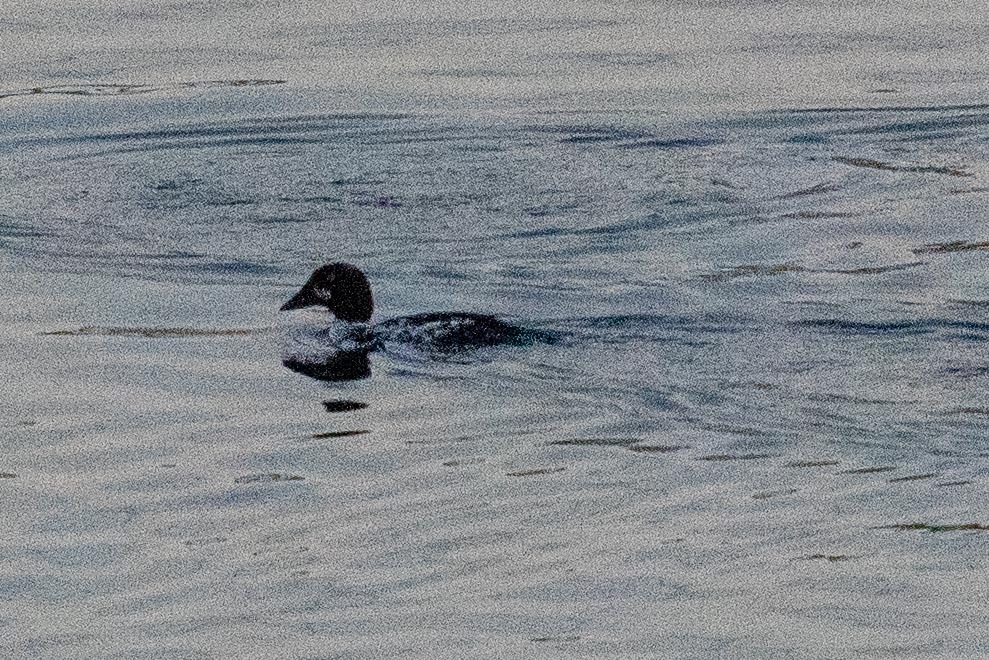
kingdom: Animalia
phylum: Chordata
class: Aves
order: Anseriformes
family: Anatidae
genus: Bucephala
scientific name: Bucephala clangula
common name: Common goldeneye
